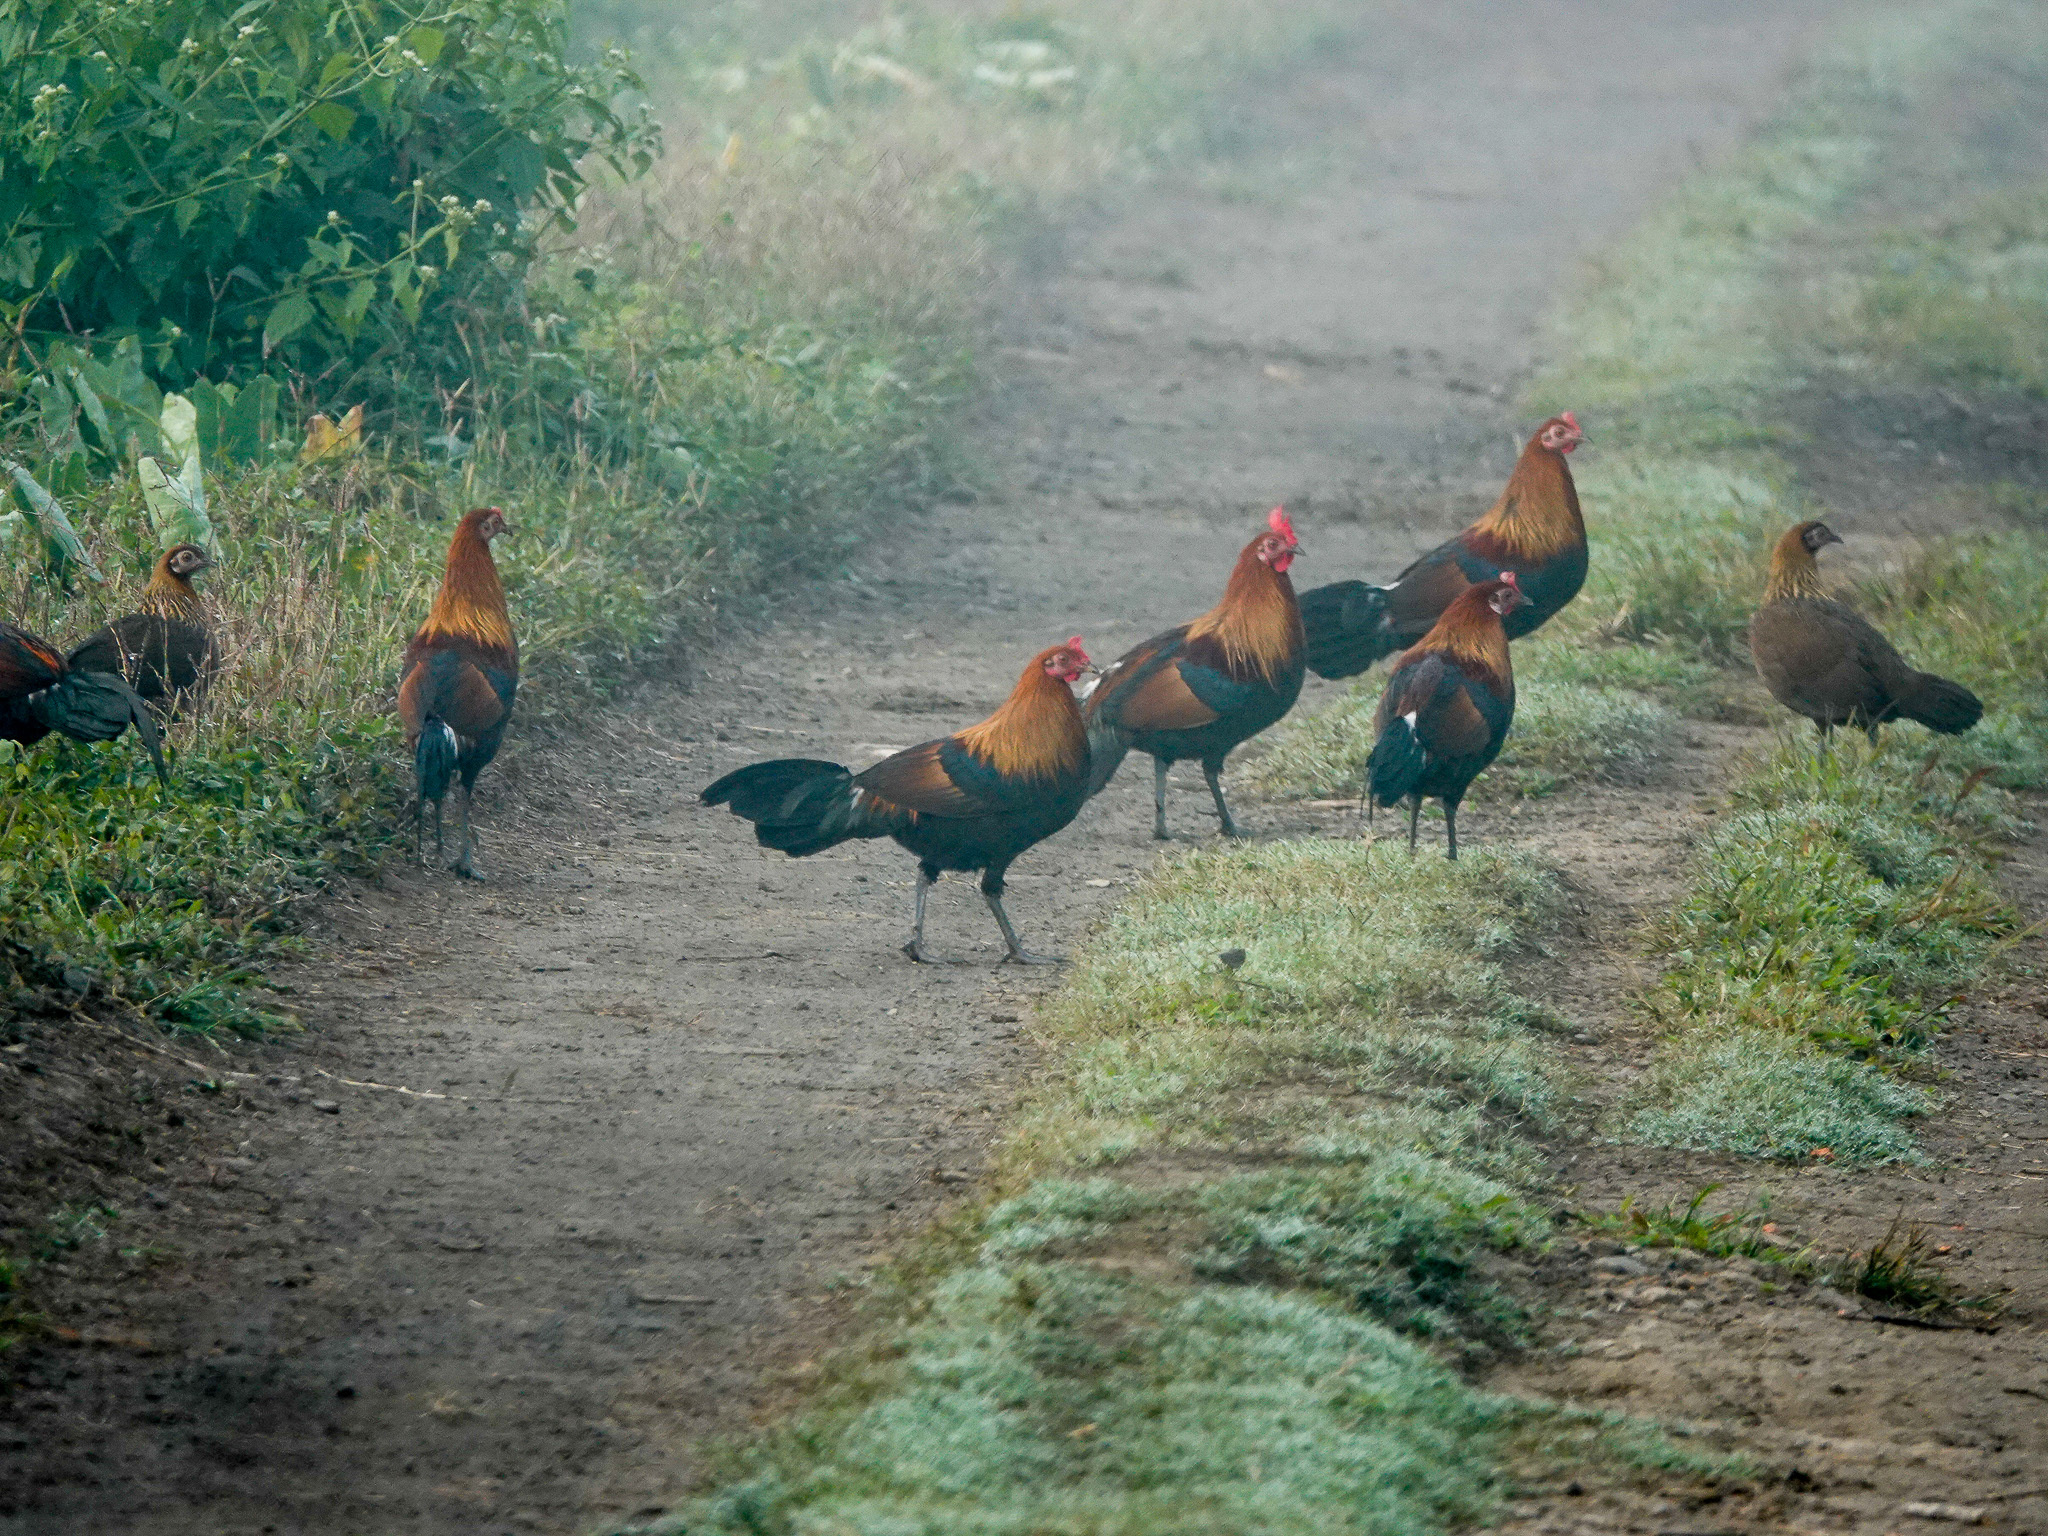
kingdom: Animalia
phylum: Chordata
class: Aves
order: Galliformes
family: Phasianidae
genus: Gallus
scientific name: Gallus gallus
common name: Red junglefowl
